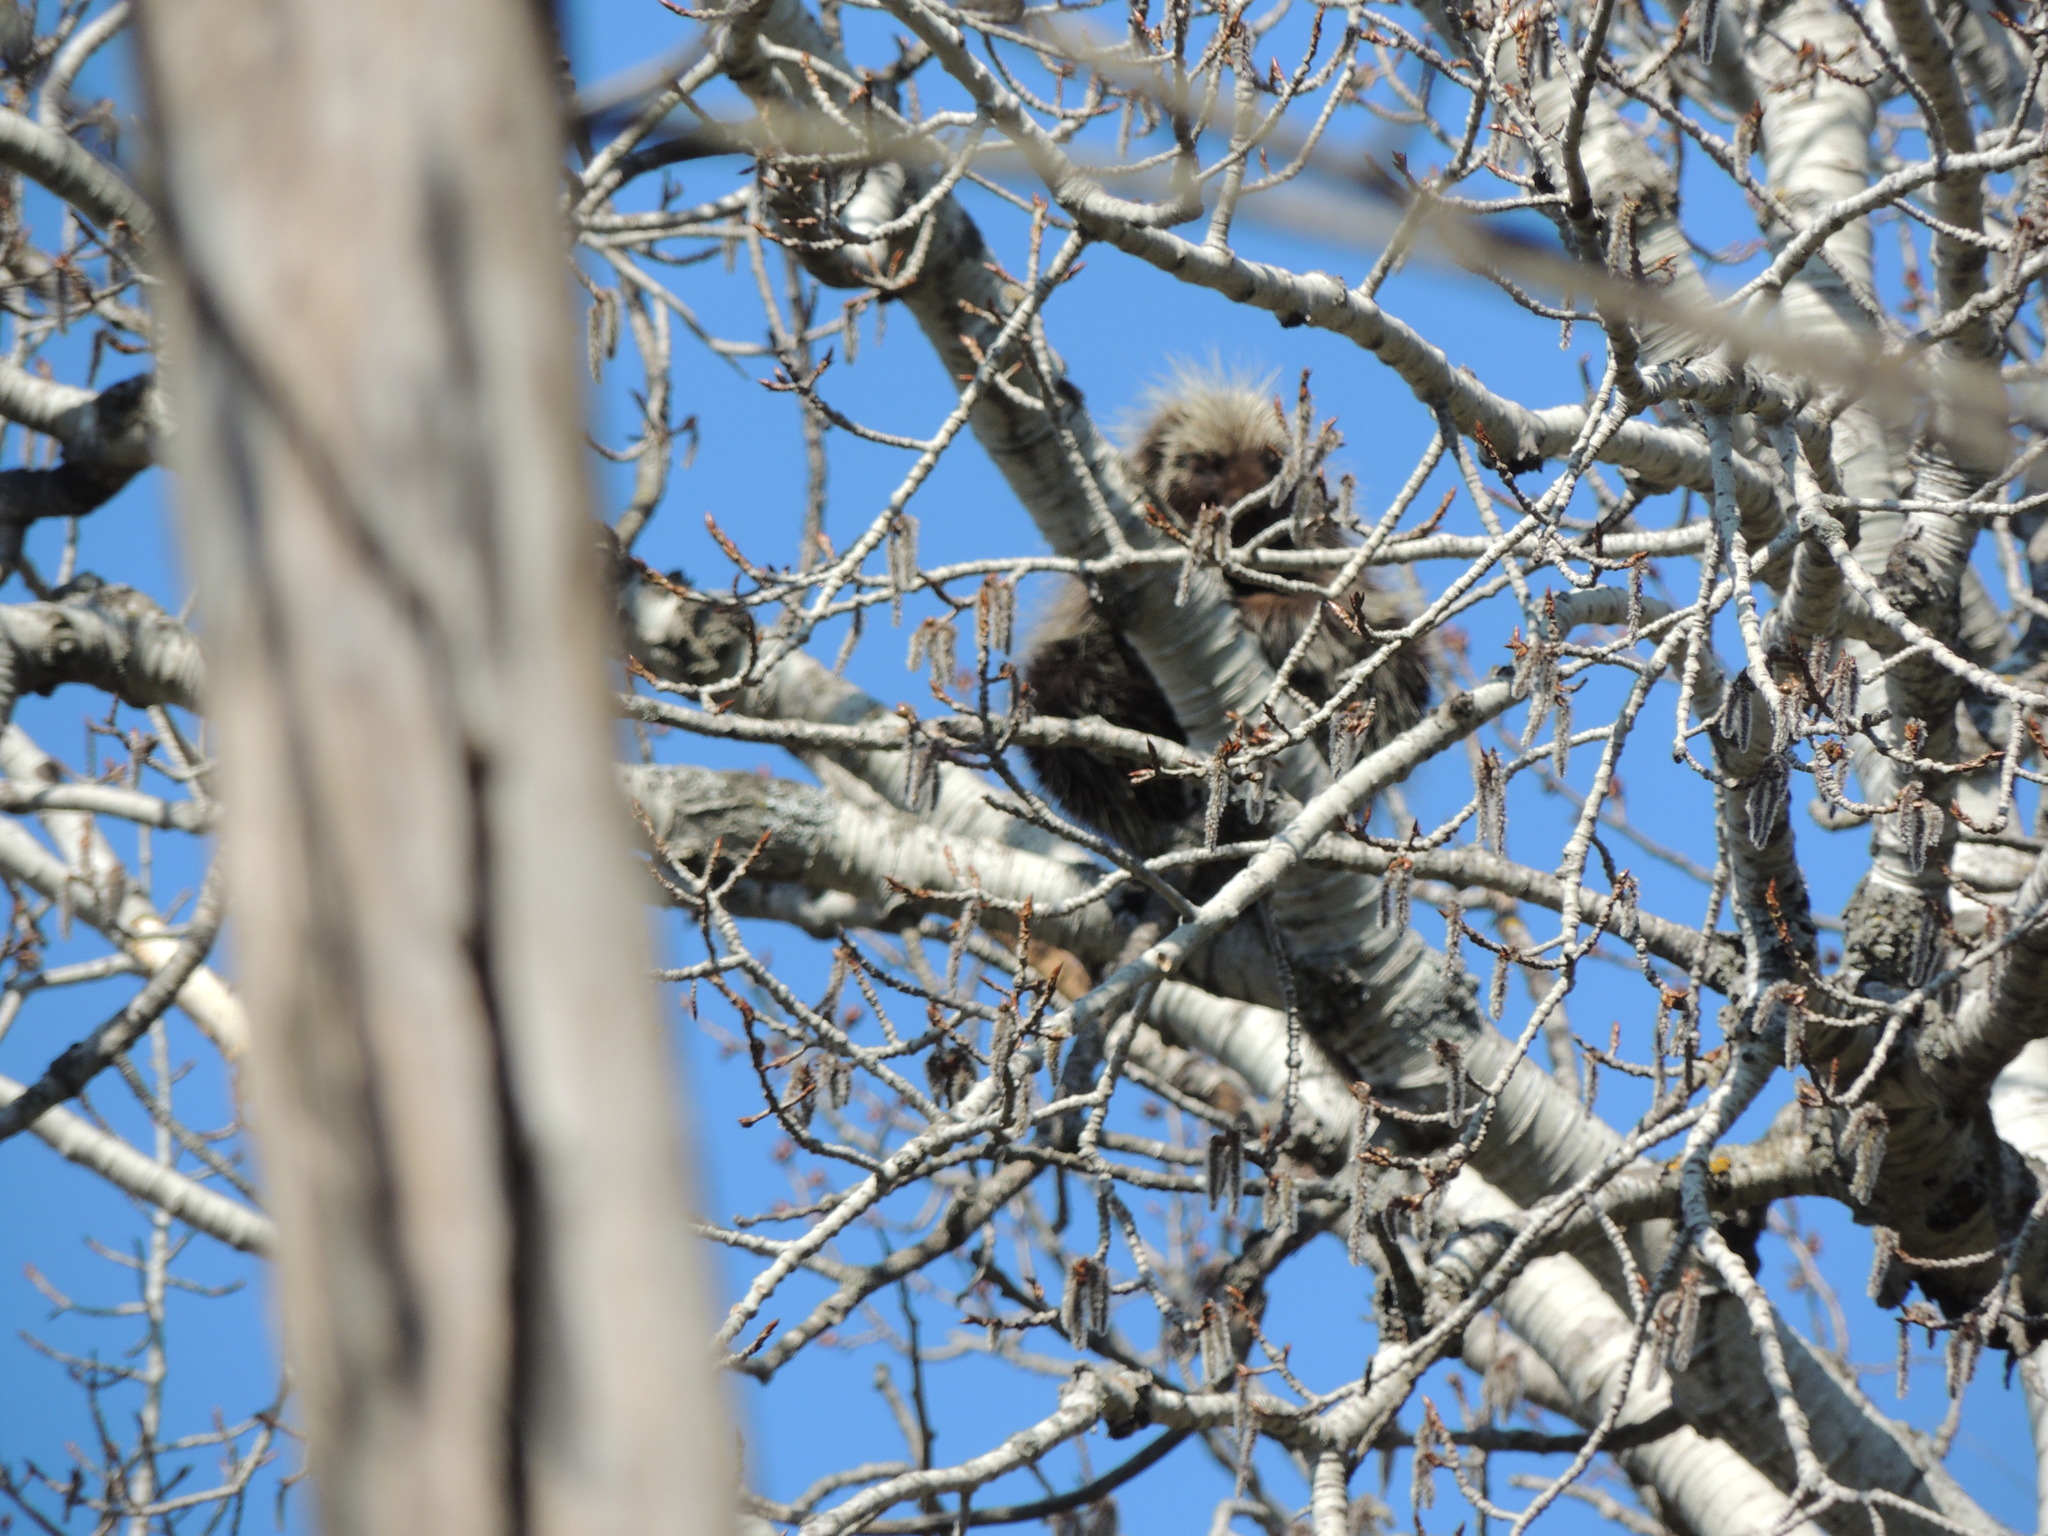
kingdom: Animalia
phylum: Chordata
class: Mammalia
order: Rodentia
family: Erethizontidae
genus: Erethizon
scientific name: Erethizon dorsatus
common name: North american porcupine
